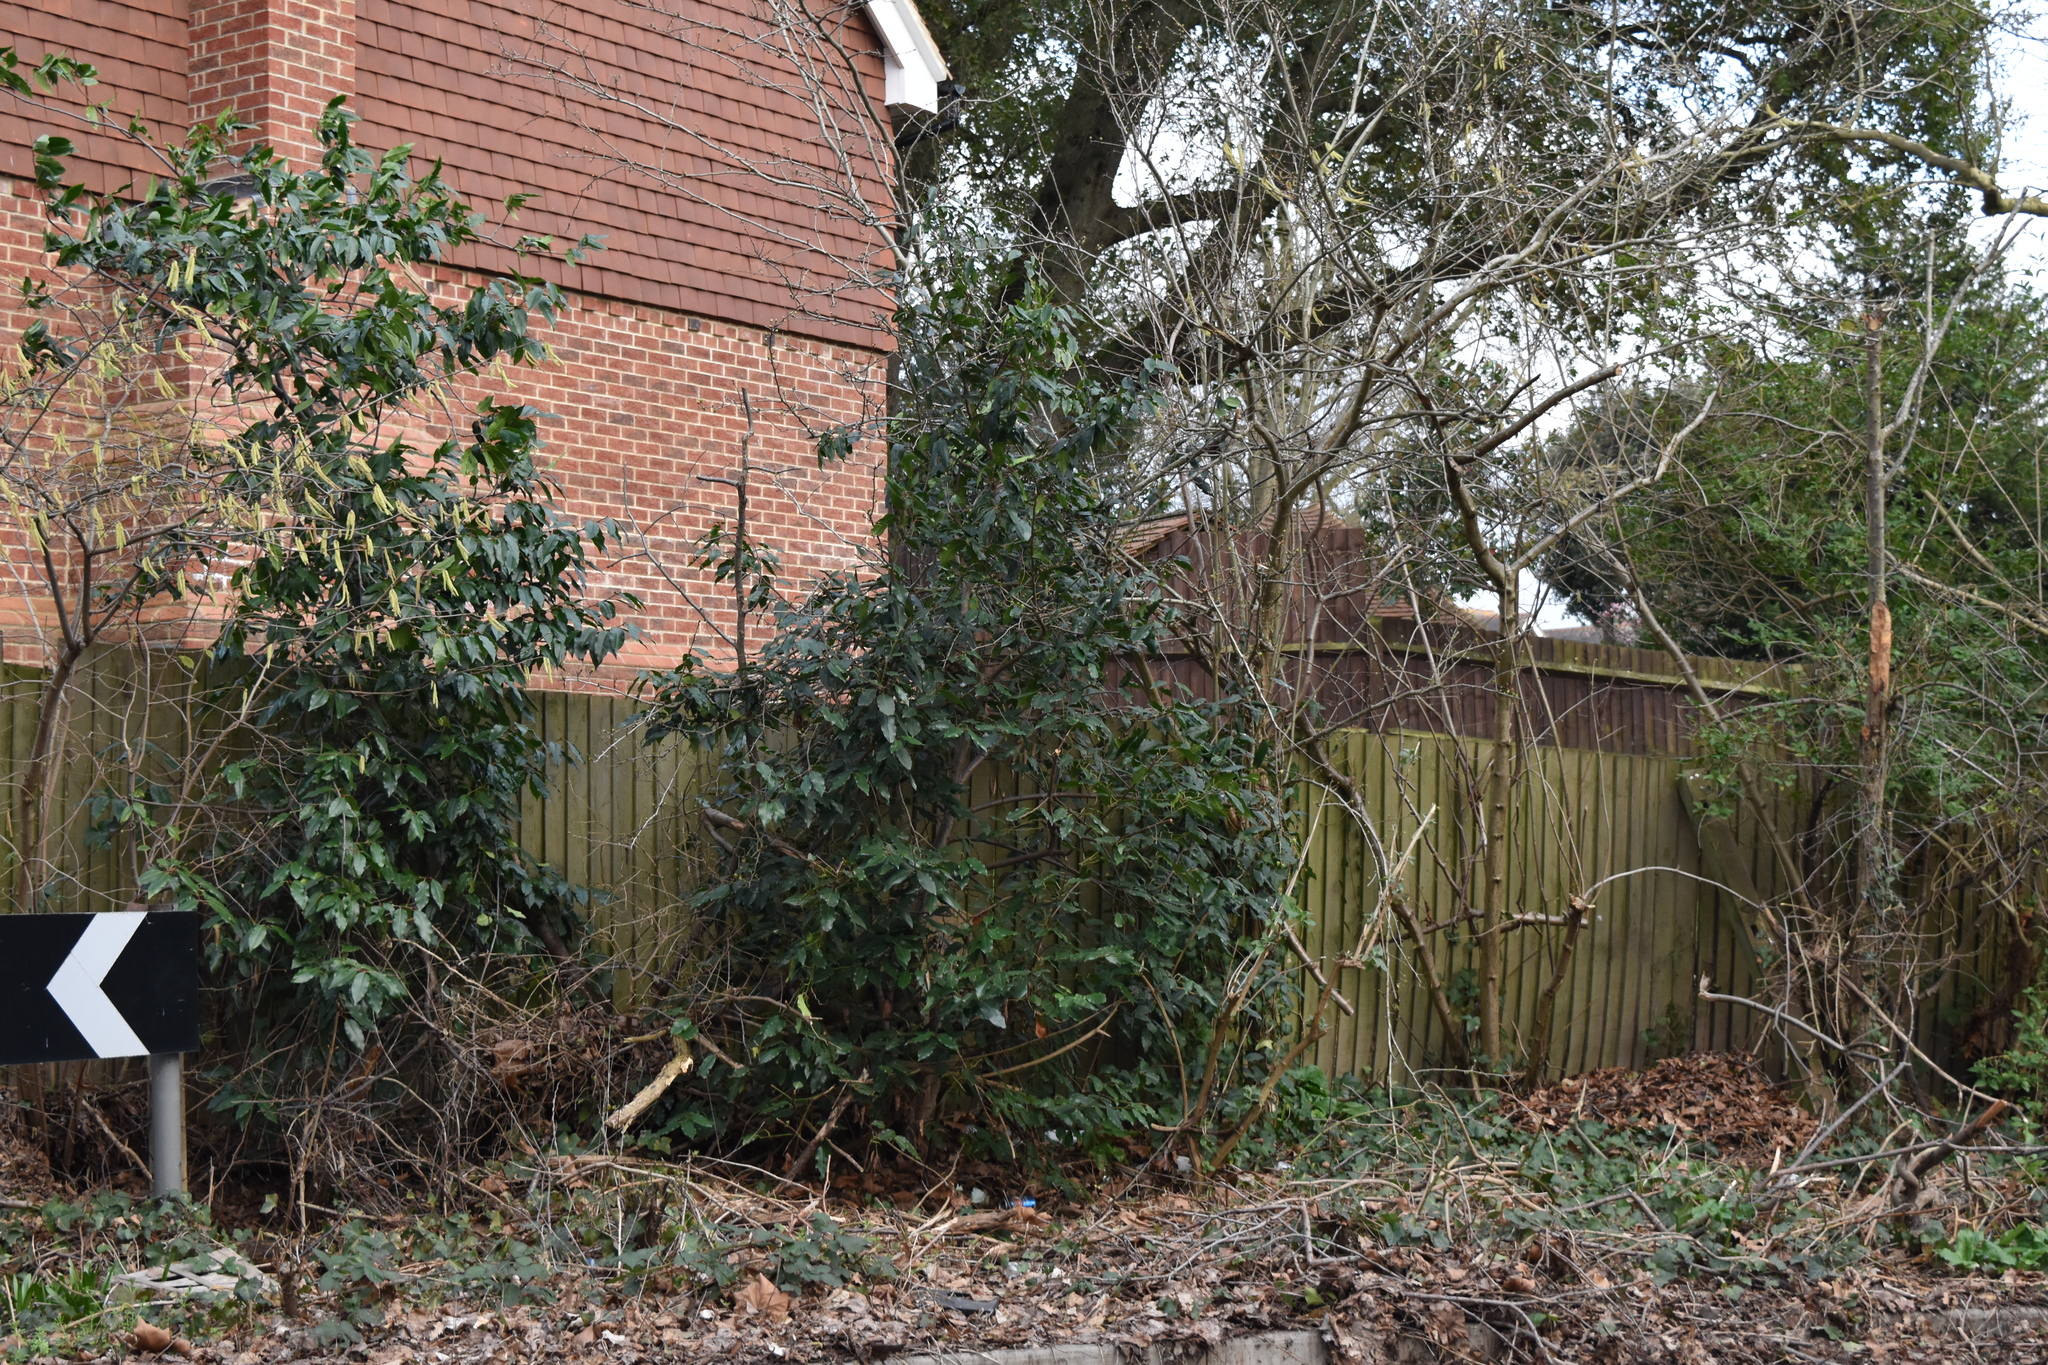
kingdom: Plantae
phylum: Tracheophyta
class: Magnoliopsida
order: Rosales
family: Rosaceae
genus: Prunus
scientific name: Prunus lusitanica
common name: Portugal laurel
